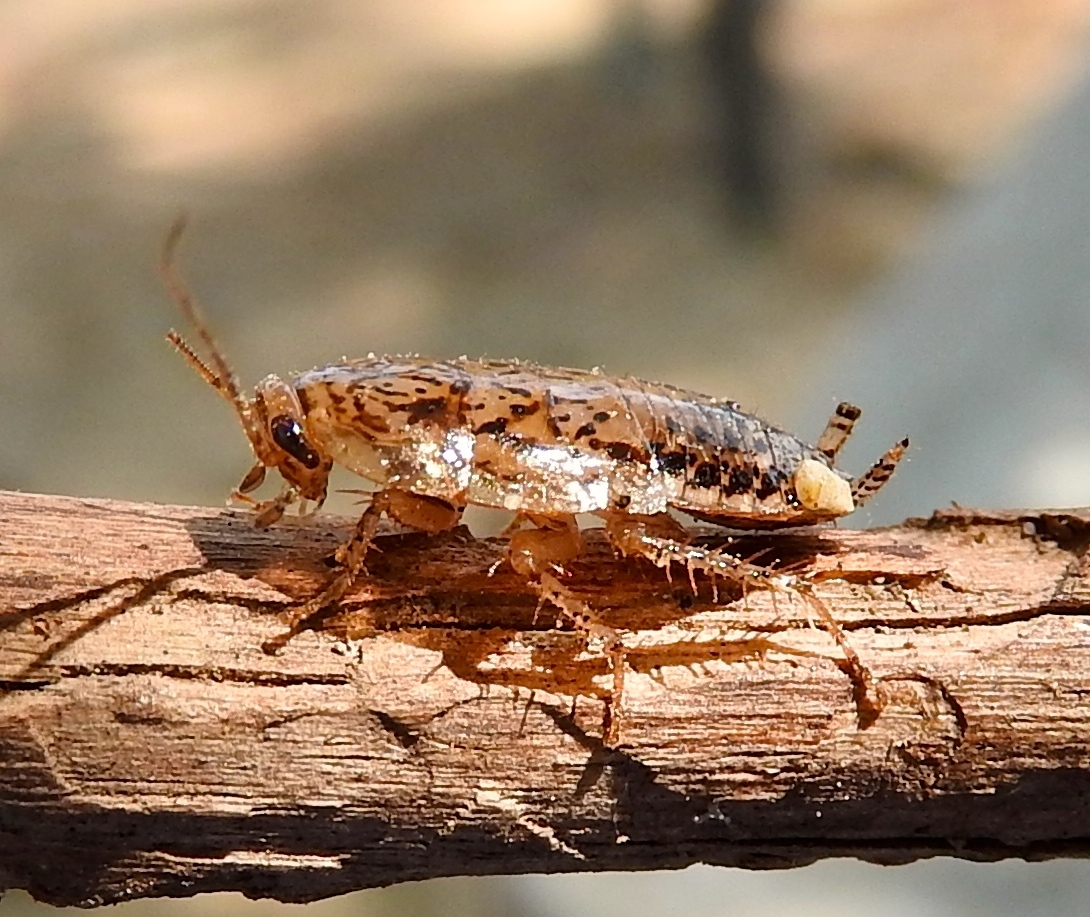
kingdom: Animalia
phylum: Arthropoda
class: Insecta
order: Blattodea
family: Ectobiidae
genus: Latiblattella
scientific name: Latiblattella
